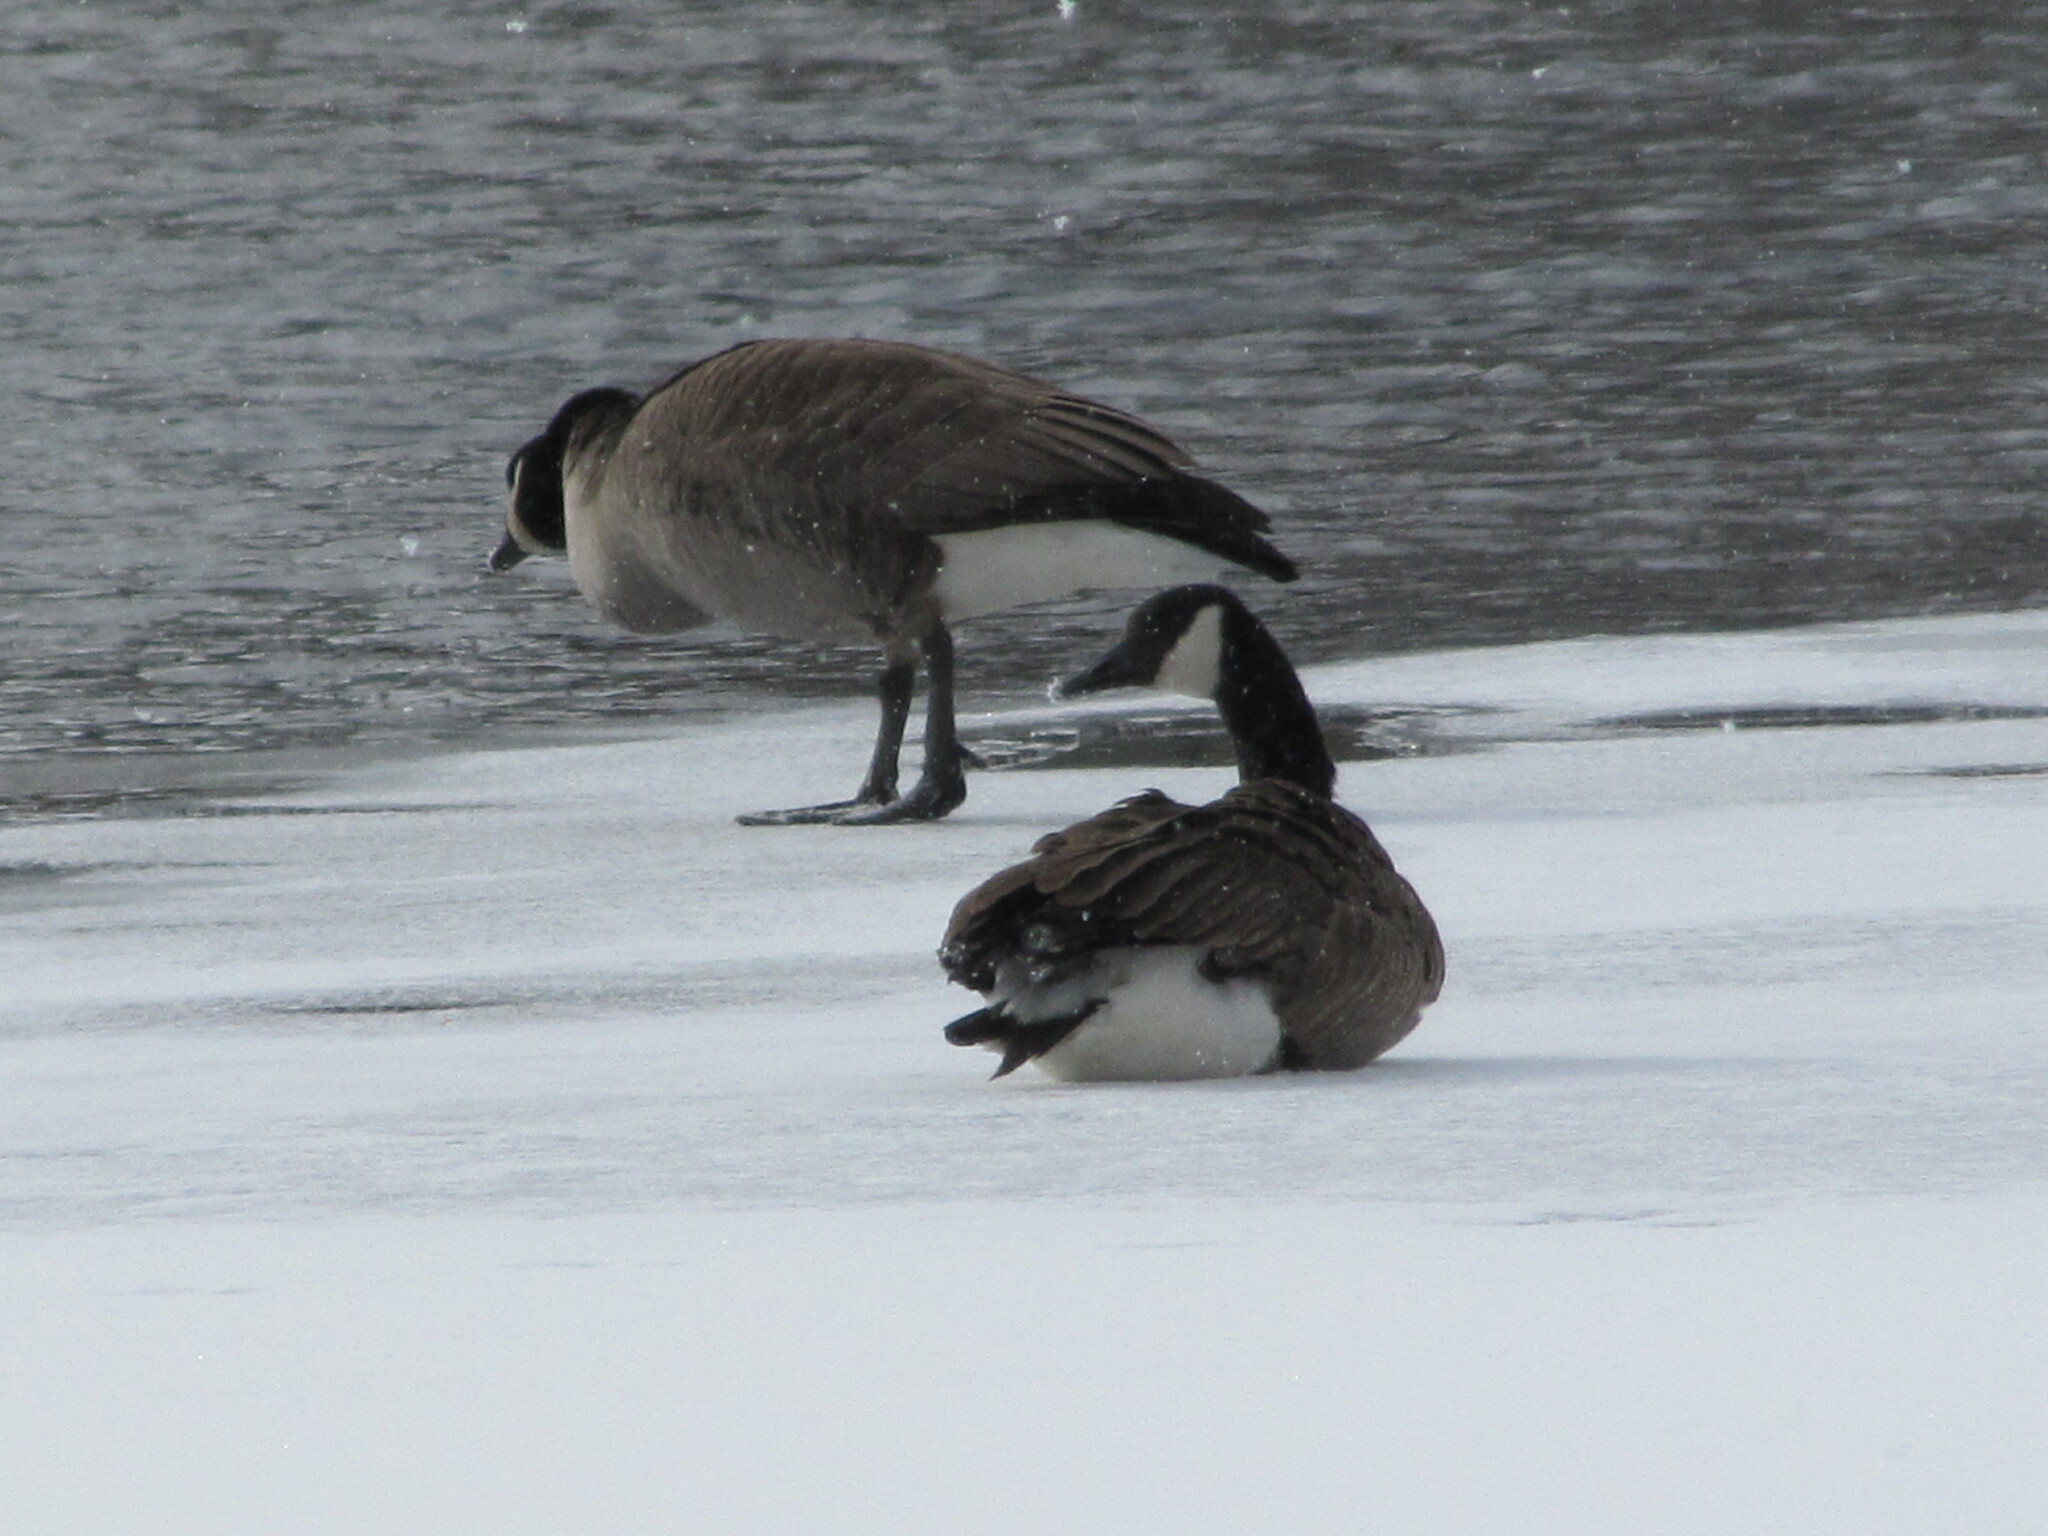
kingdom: Animalia
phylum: Chordata
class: Aves
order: Anseriformes
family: Anatidae
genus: Branta
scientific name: Branta canadensis
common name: Canada goose
